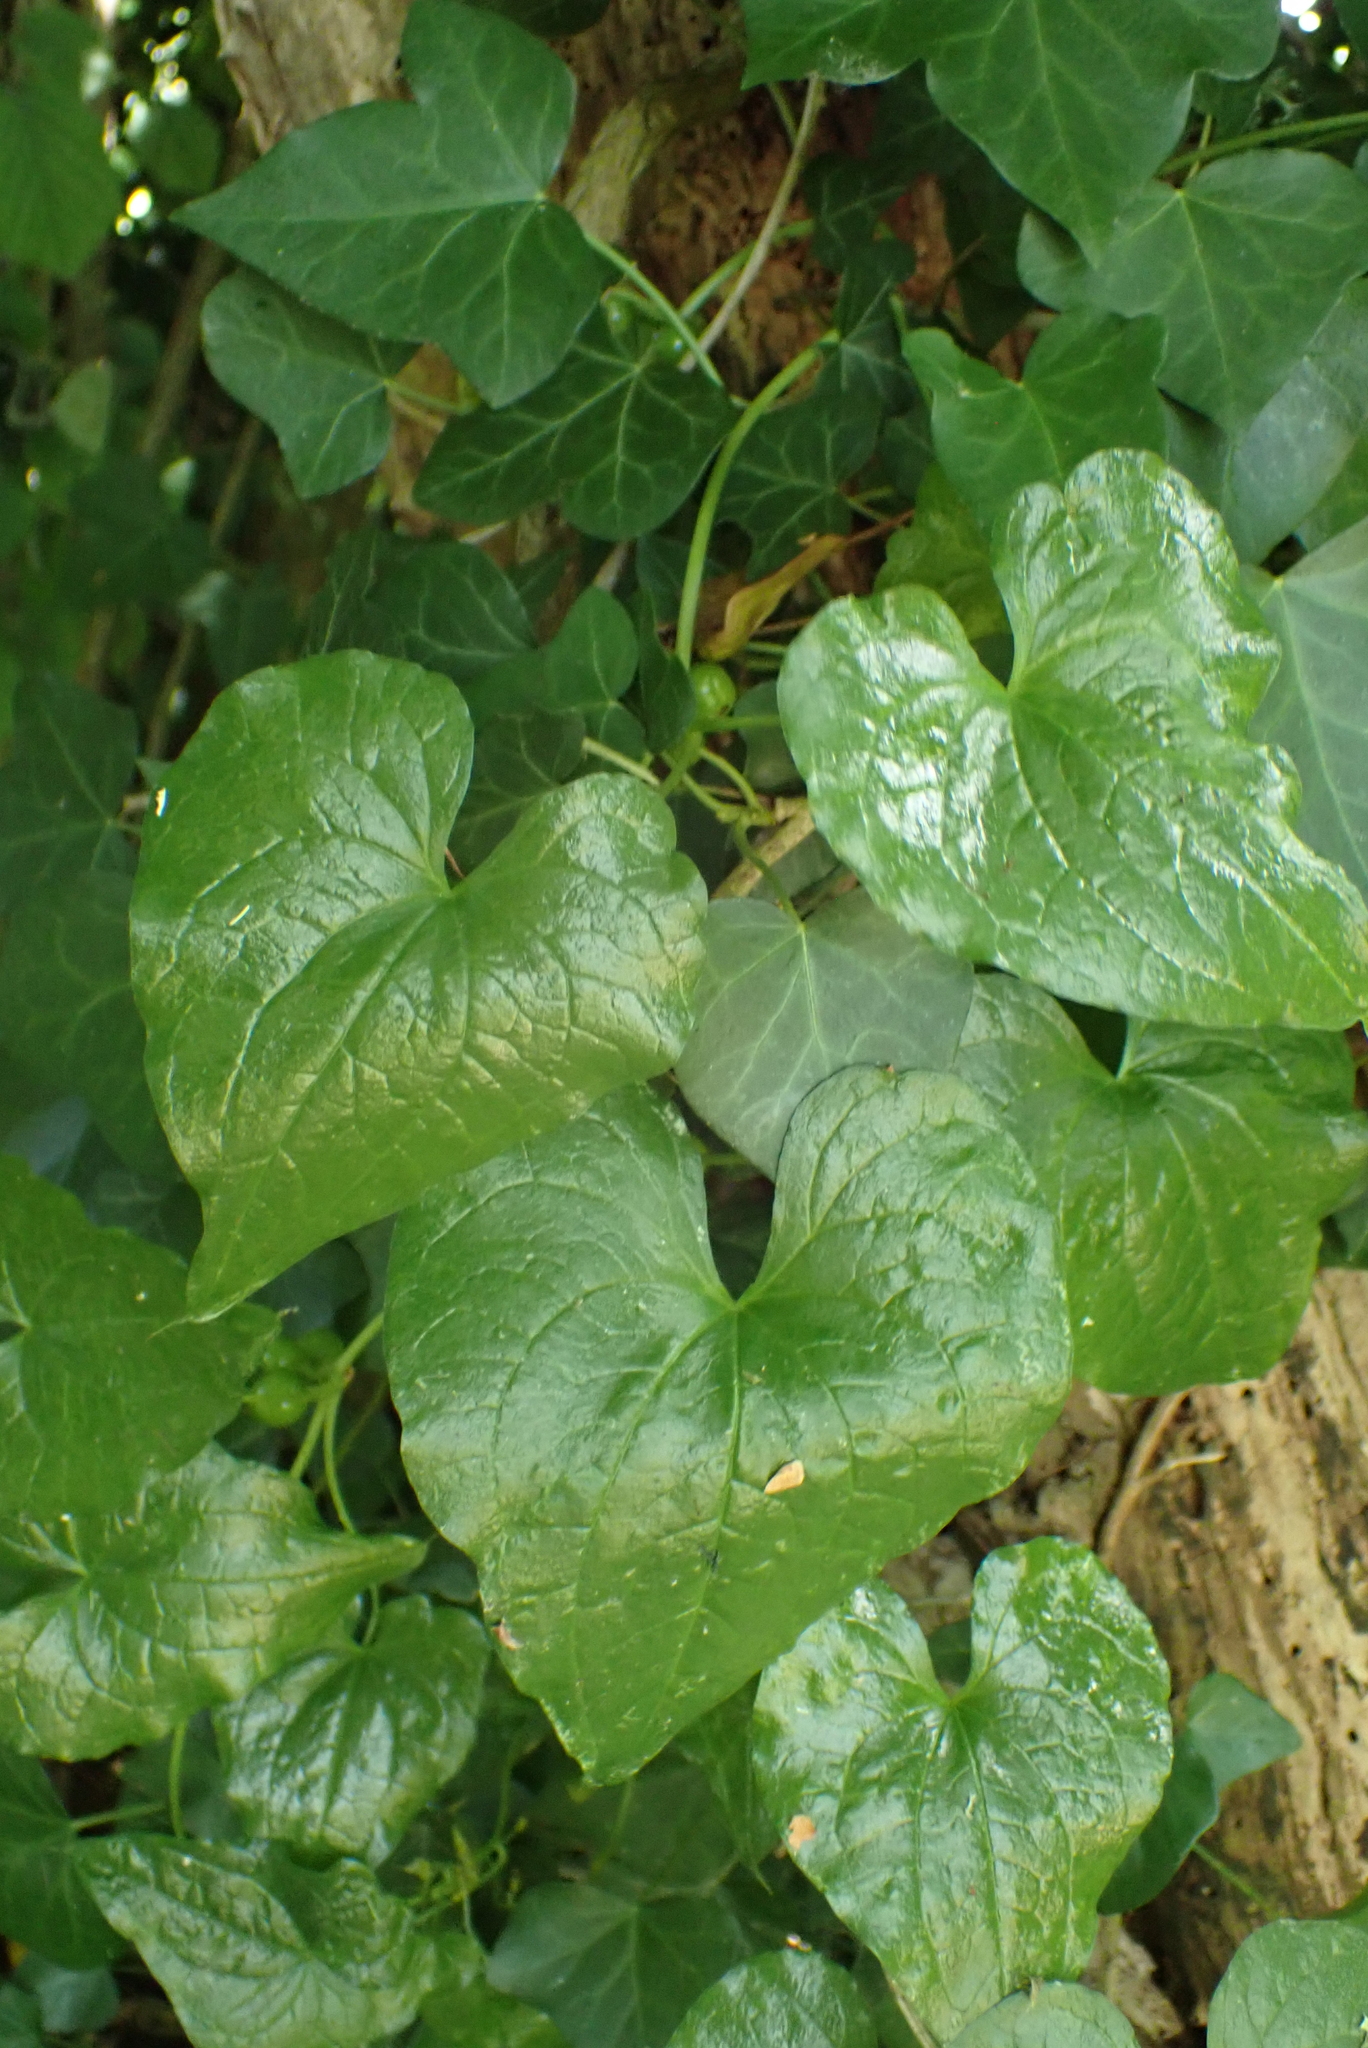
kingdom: Plantae
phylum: Tracheophyta
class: Liliopsida
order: Dioscoreales
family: Dioscoreaceae
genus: Dioscorea
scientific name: Dioscorea communis
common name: Black-bindweed
